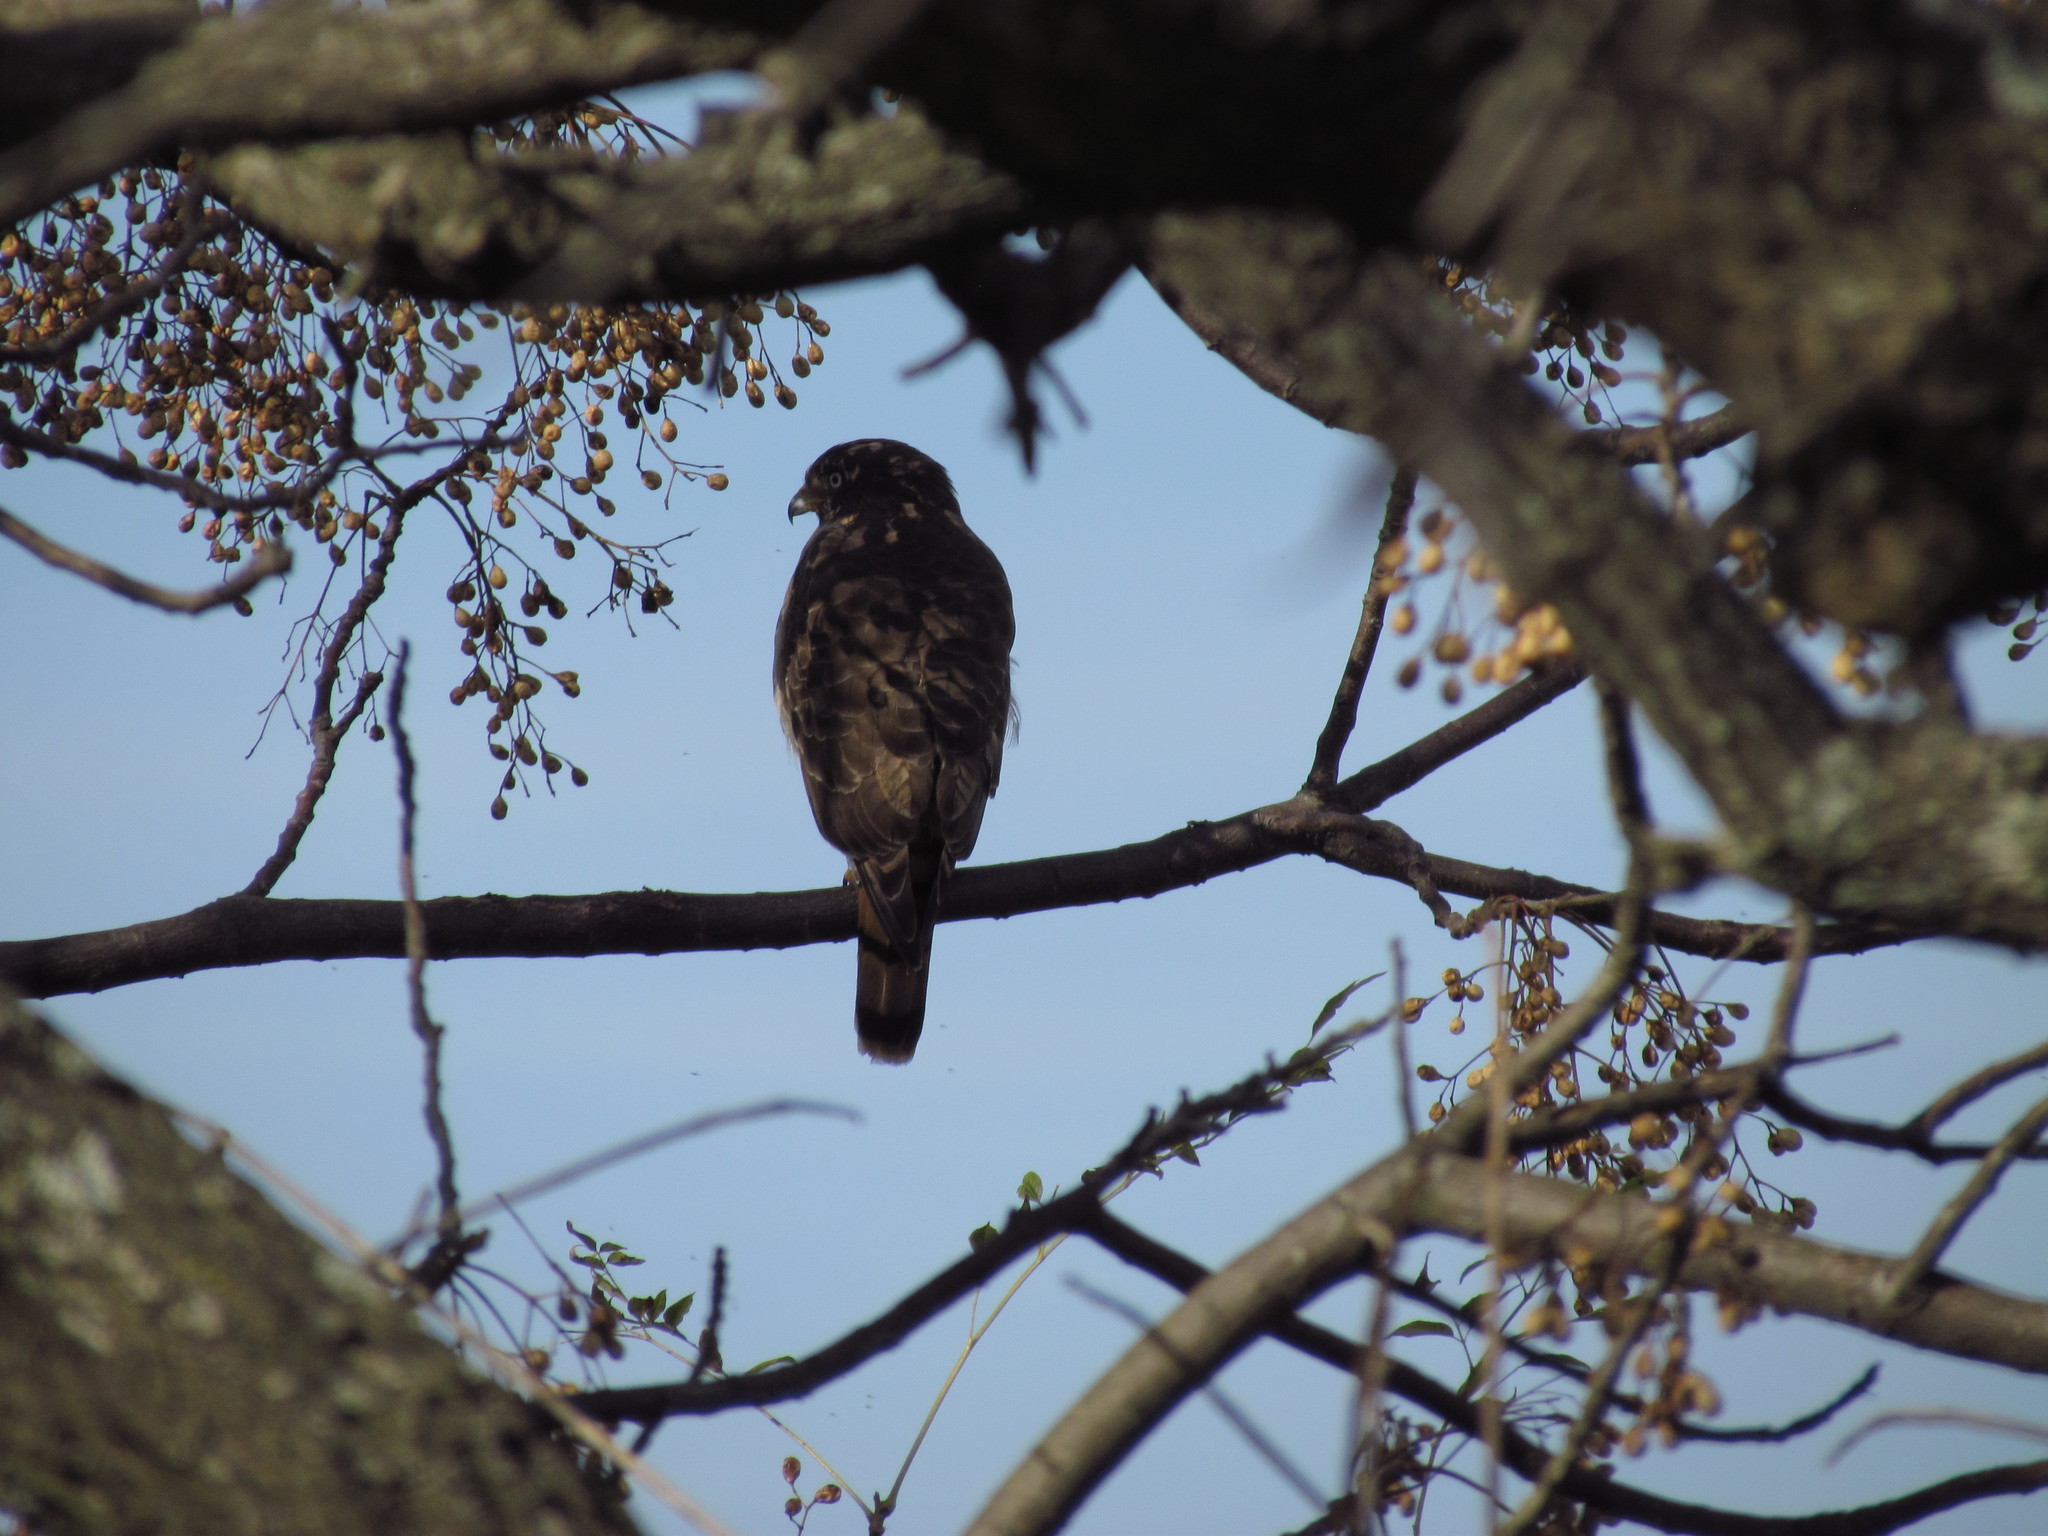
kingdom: Animalia
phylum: Chordata
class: Aves
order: Accipitriformes
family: Accipitridae
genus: Rupornis
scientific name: Rupornis magnirostris
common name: Roadside hawk
